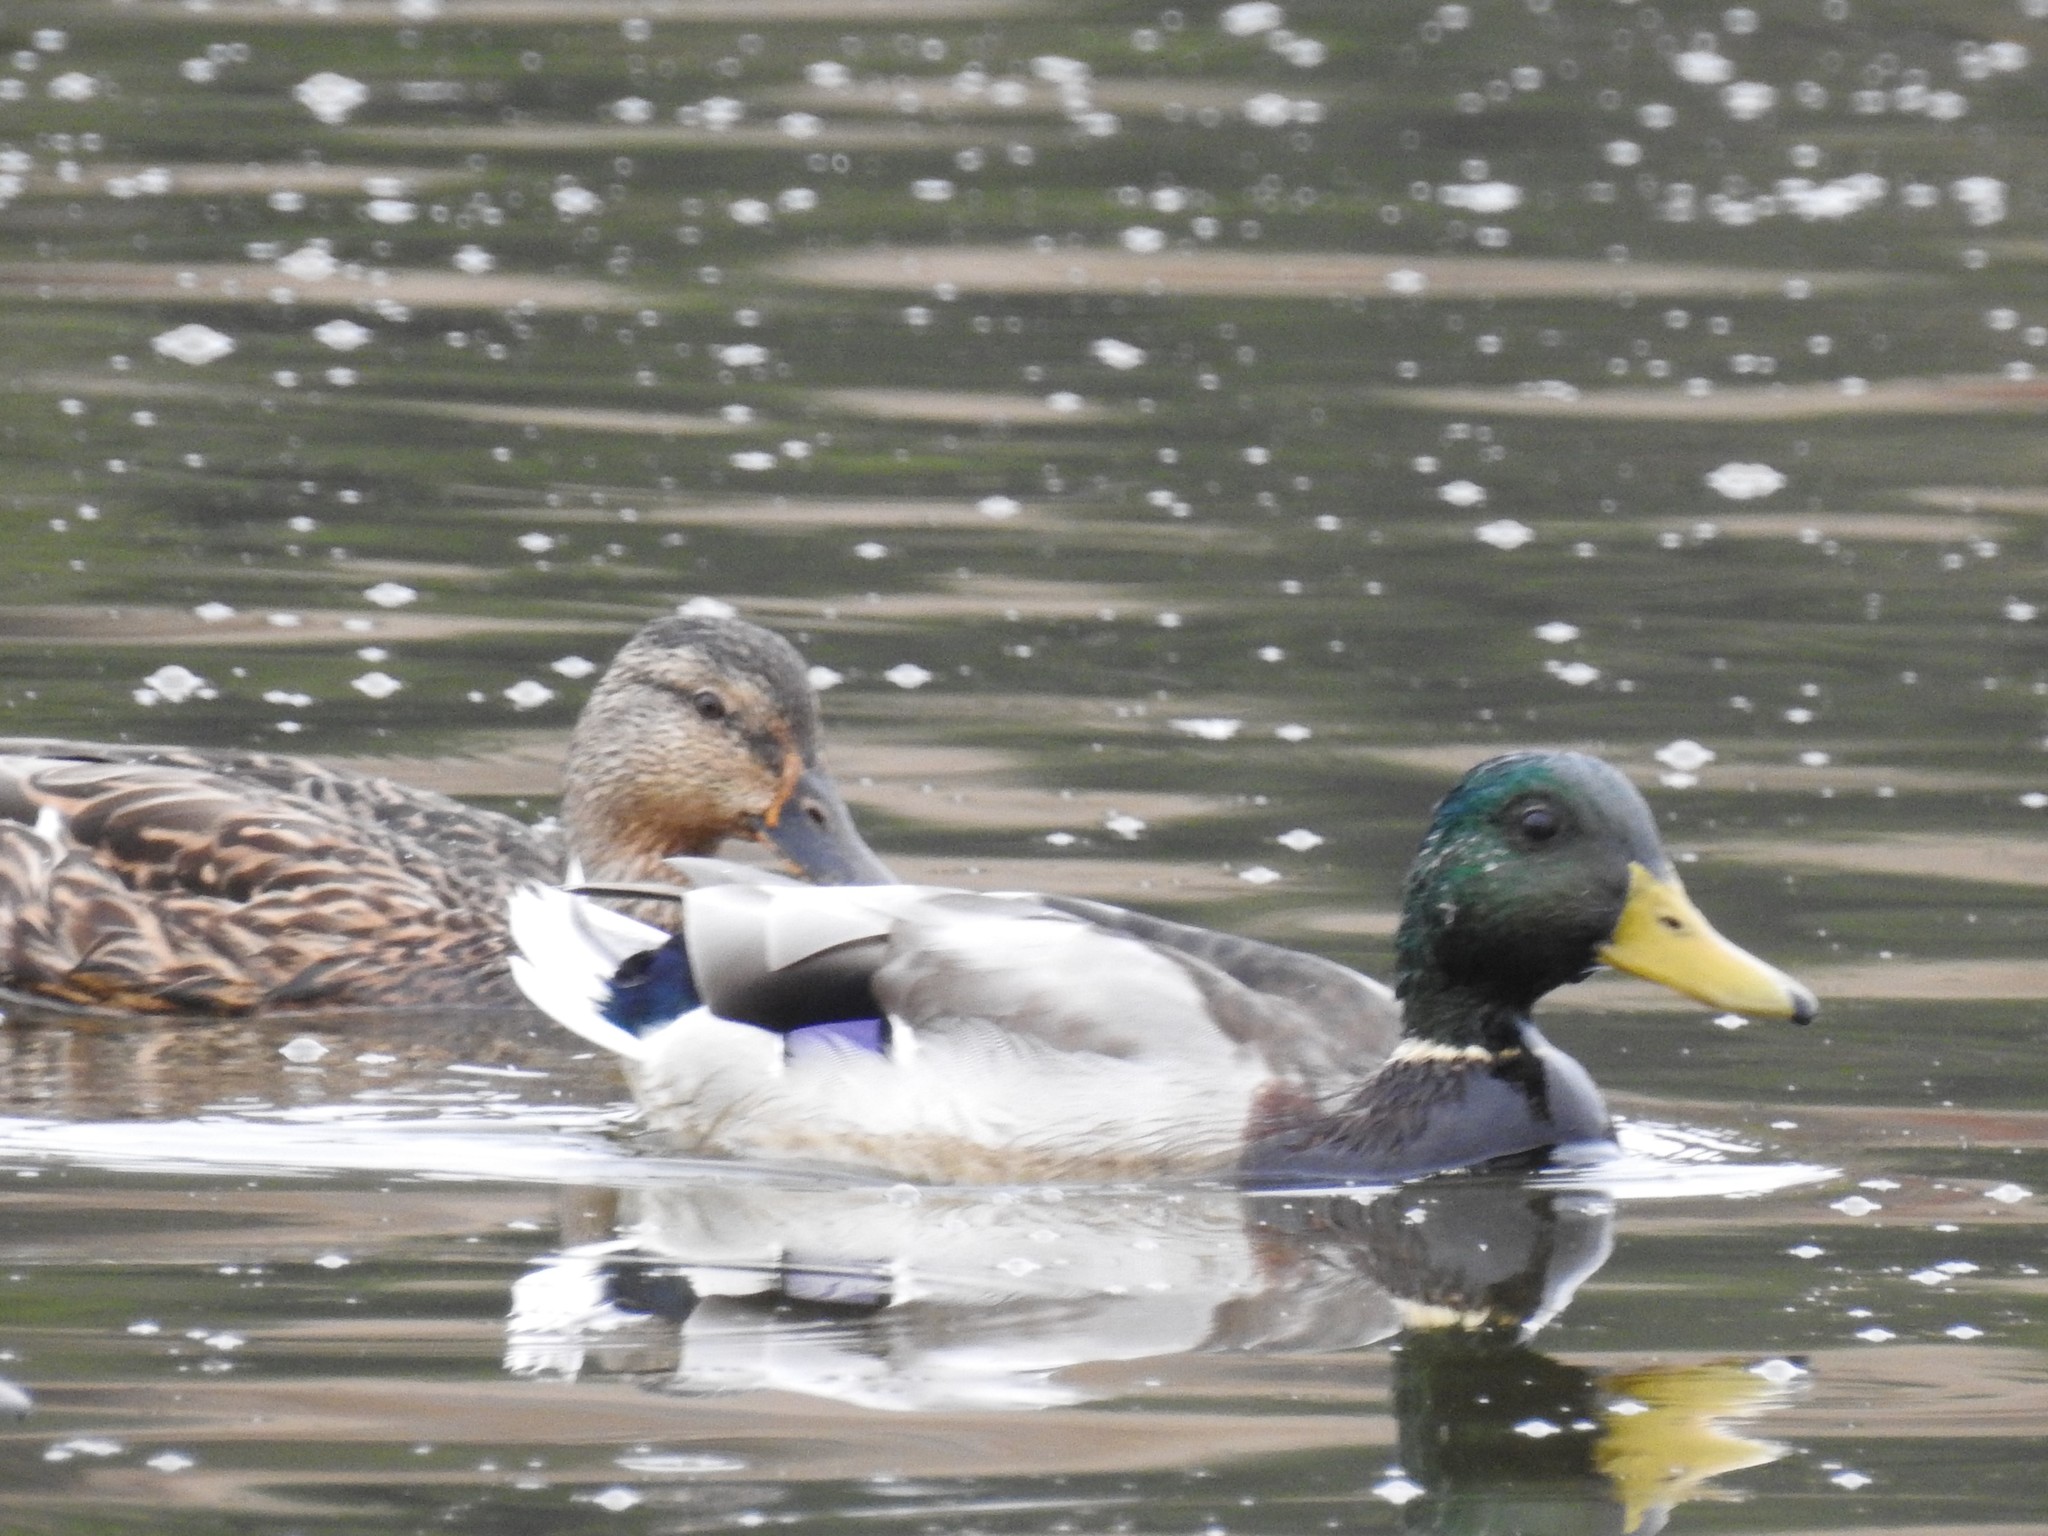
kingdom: Animalia
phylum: Chordata
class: Aves
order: Anseriformes
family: Anatidae
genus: Anas
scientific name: Anas platyrhynchos
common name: Mallard
